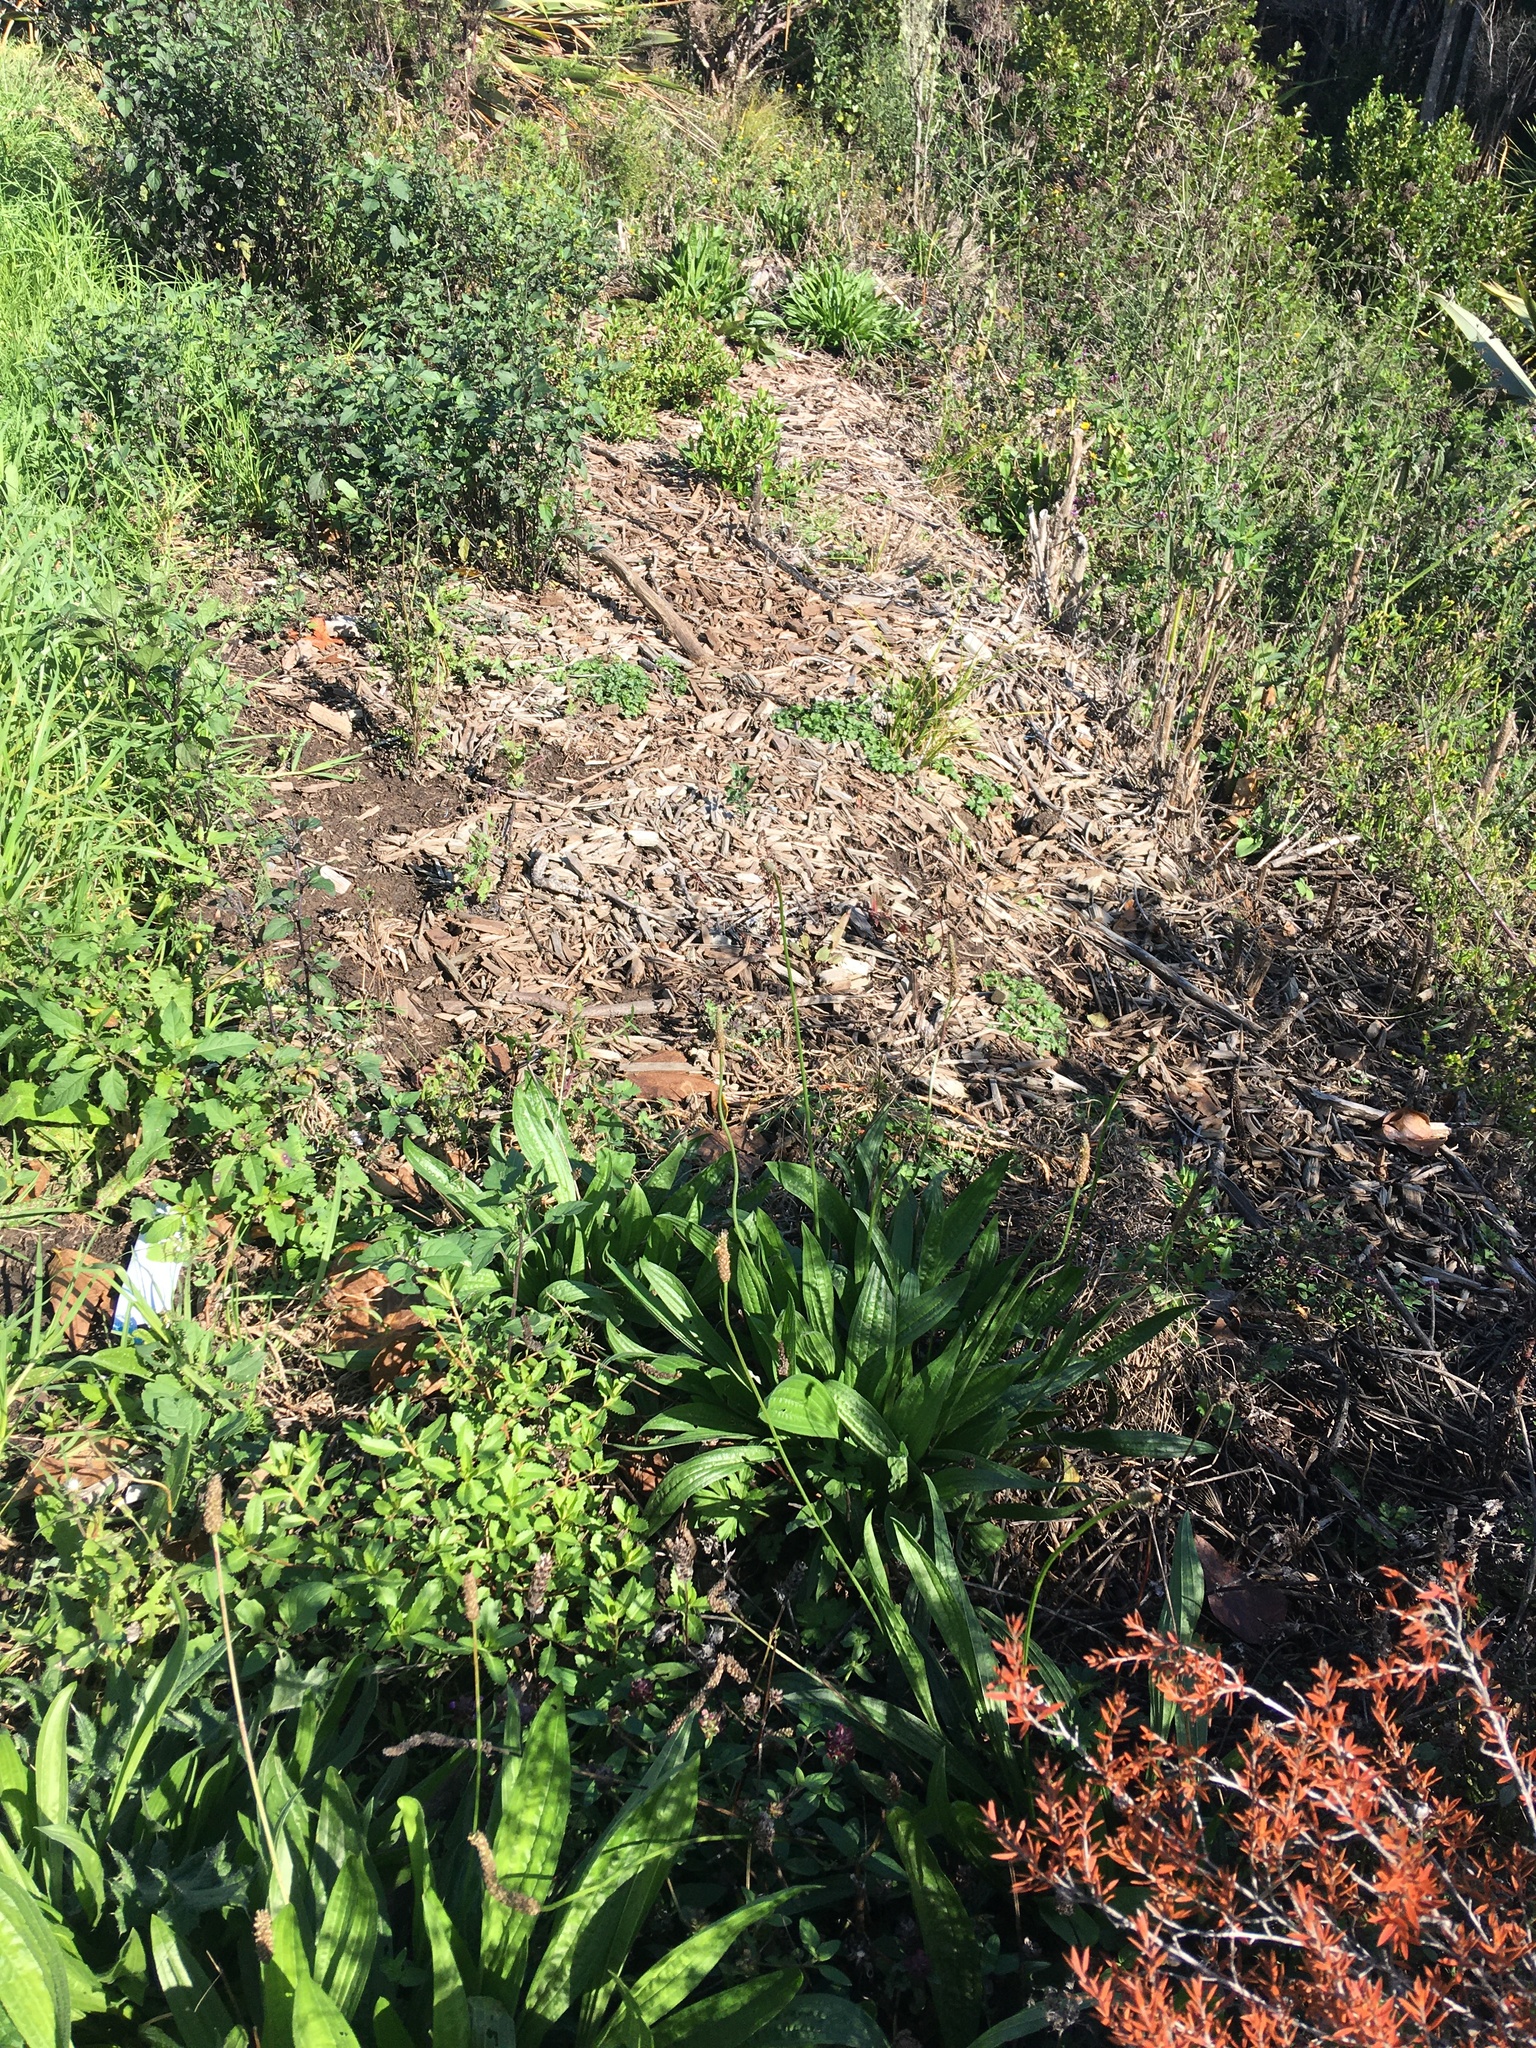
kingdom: Plantae
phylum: Tracheophyta
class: Magnoliopsida
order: Saxifragales
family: Haloragaceae
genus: Haloragis
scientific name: Haloragis erecta
